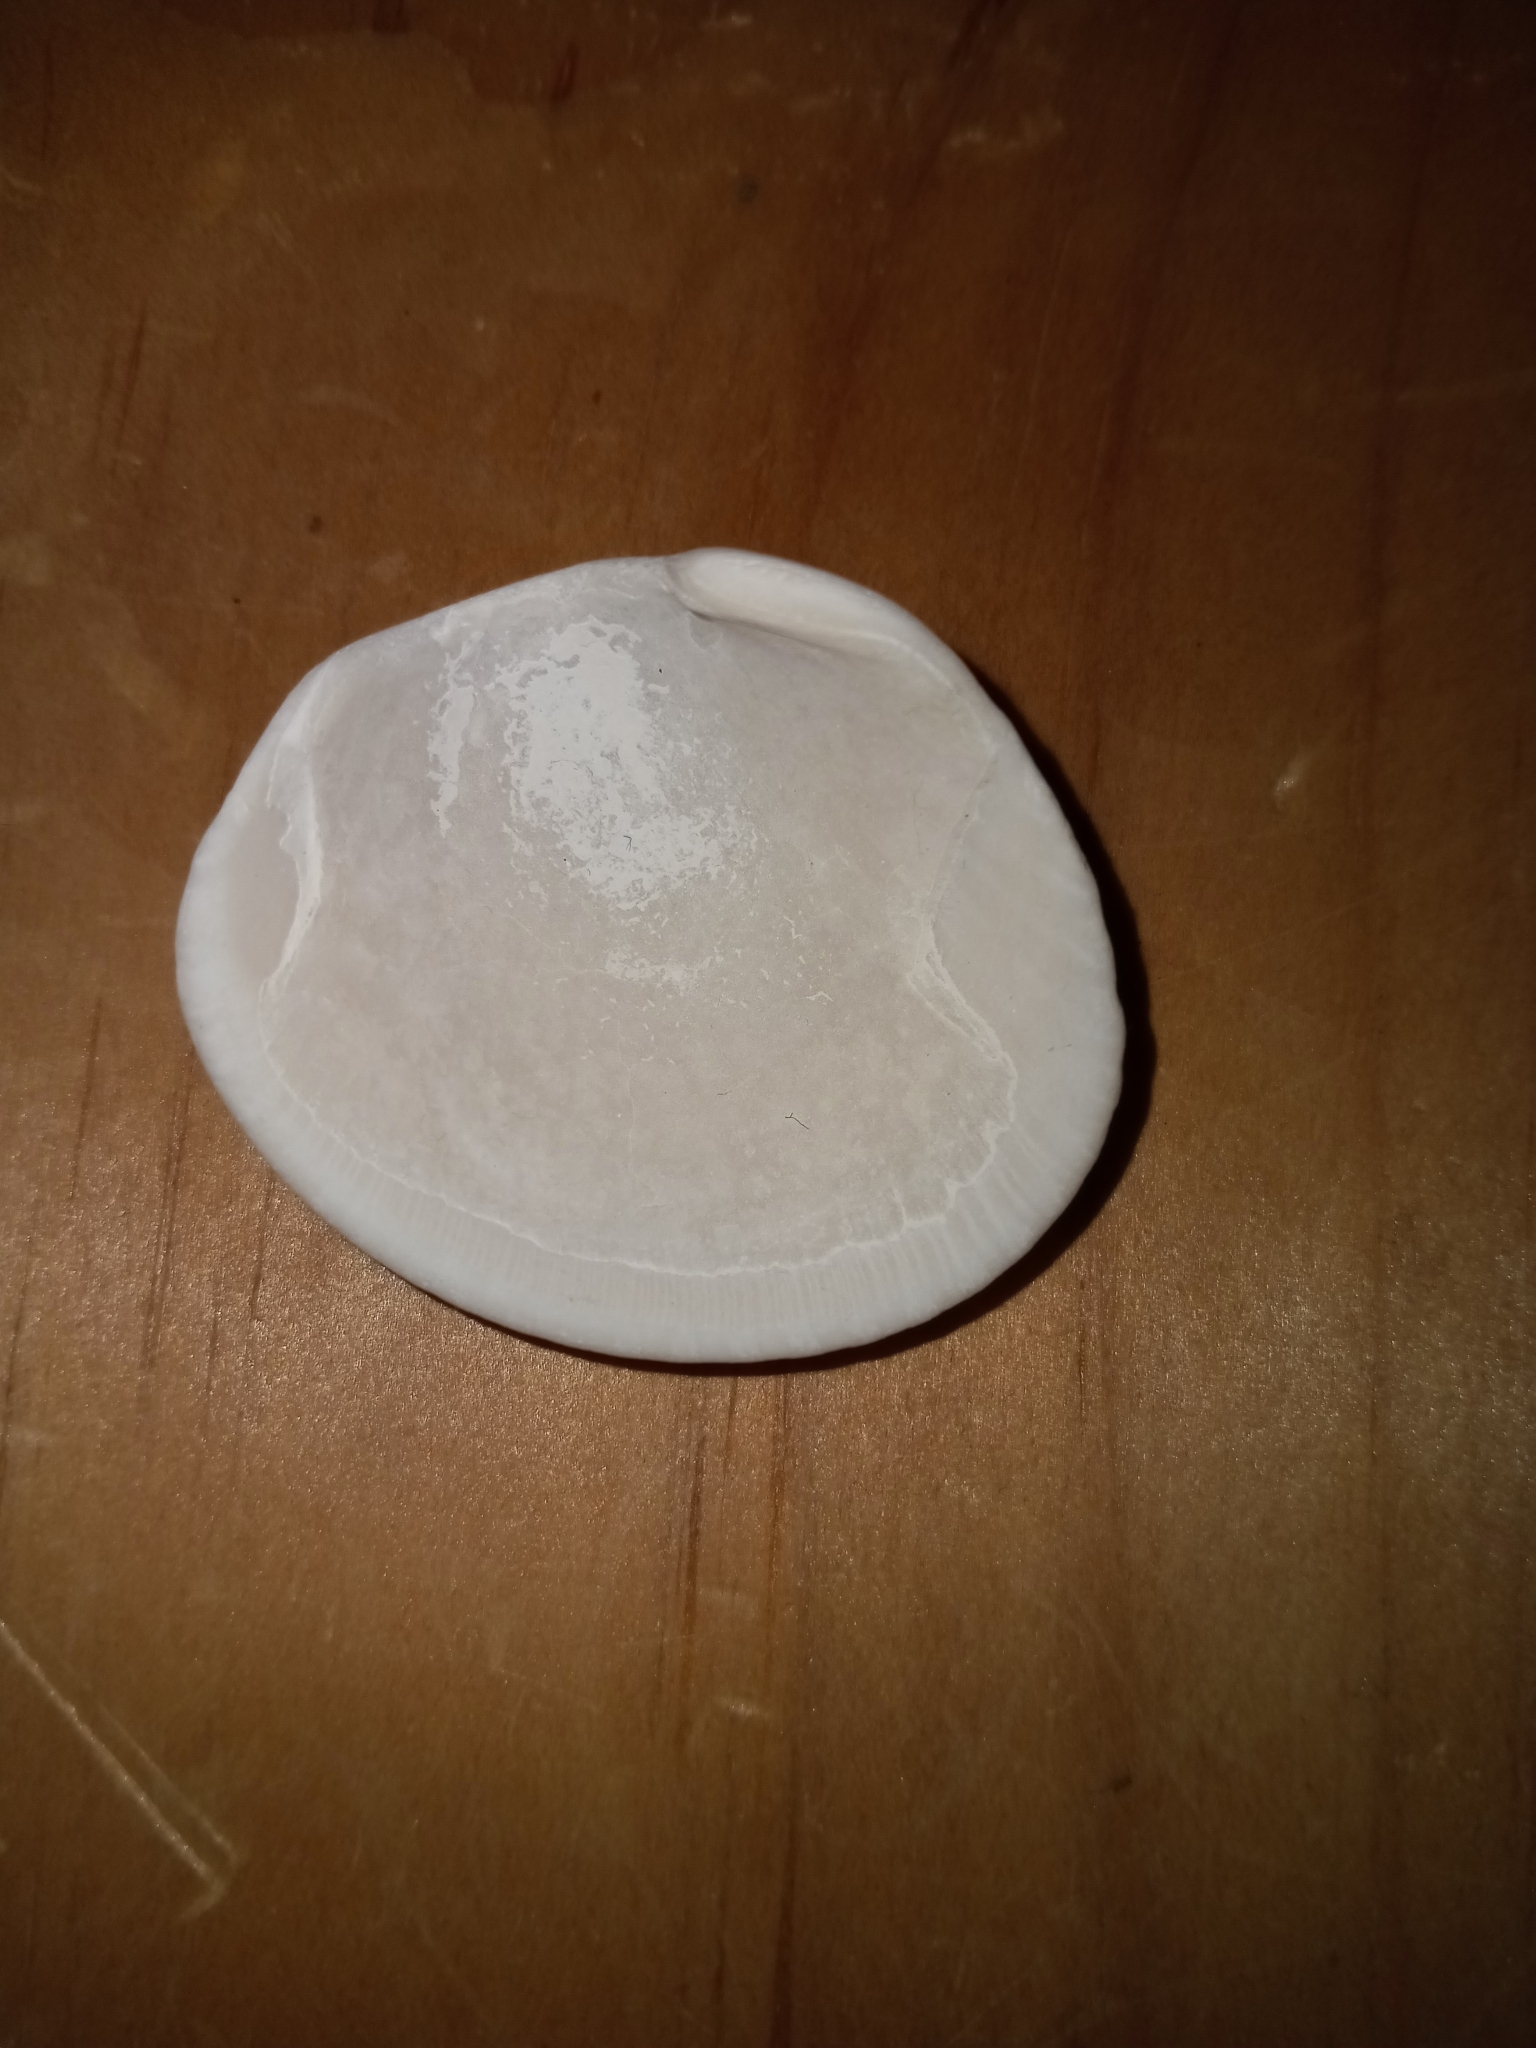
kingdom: Animalia
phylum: Mollusca
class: Bivalvia
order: Arcida
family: Arcidae
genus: Lunarca
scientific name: Lunarca ovalis
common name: Blood ark
